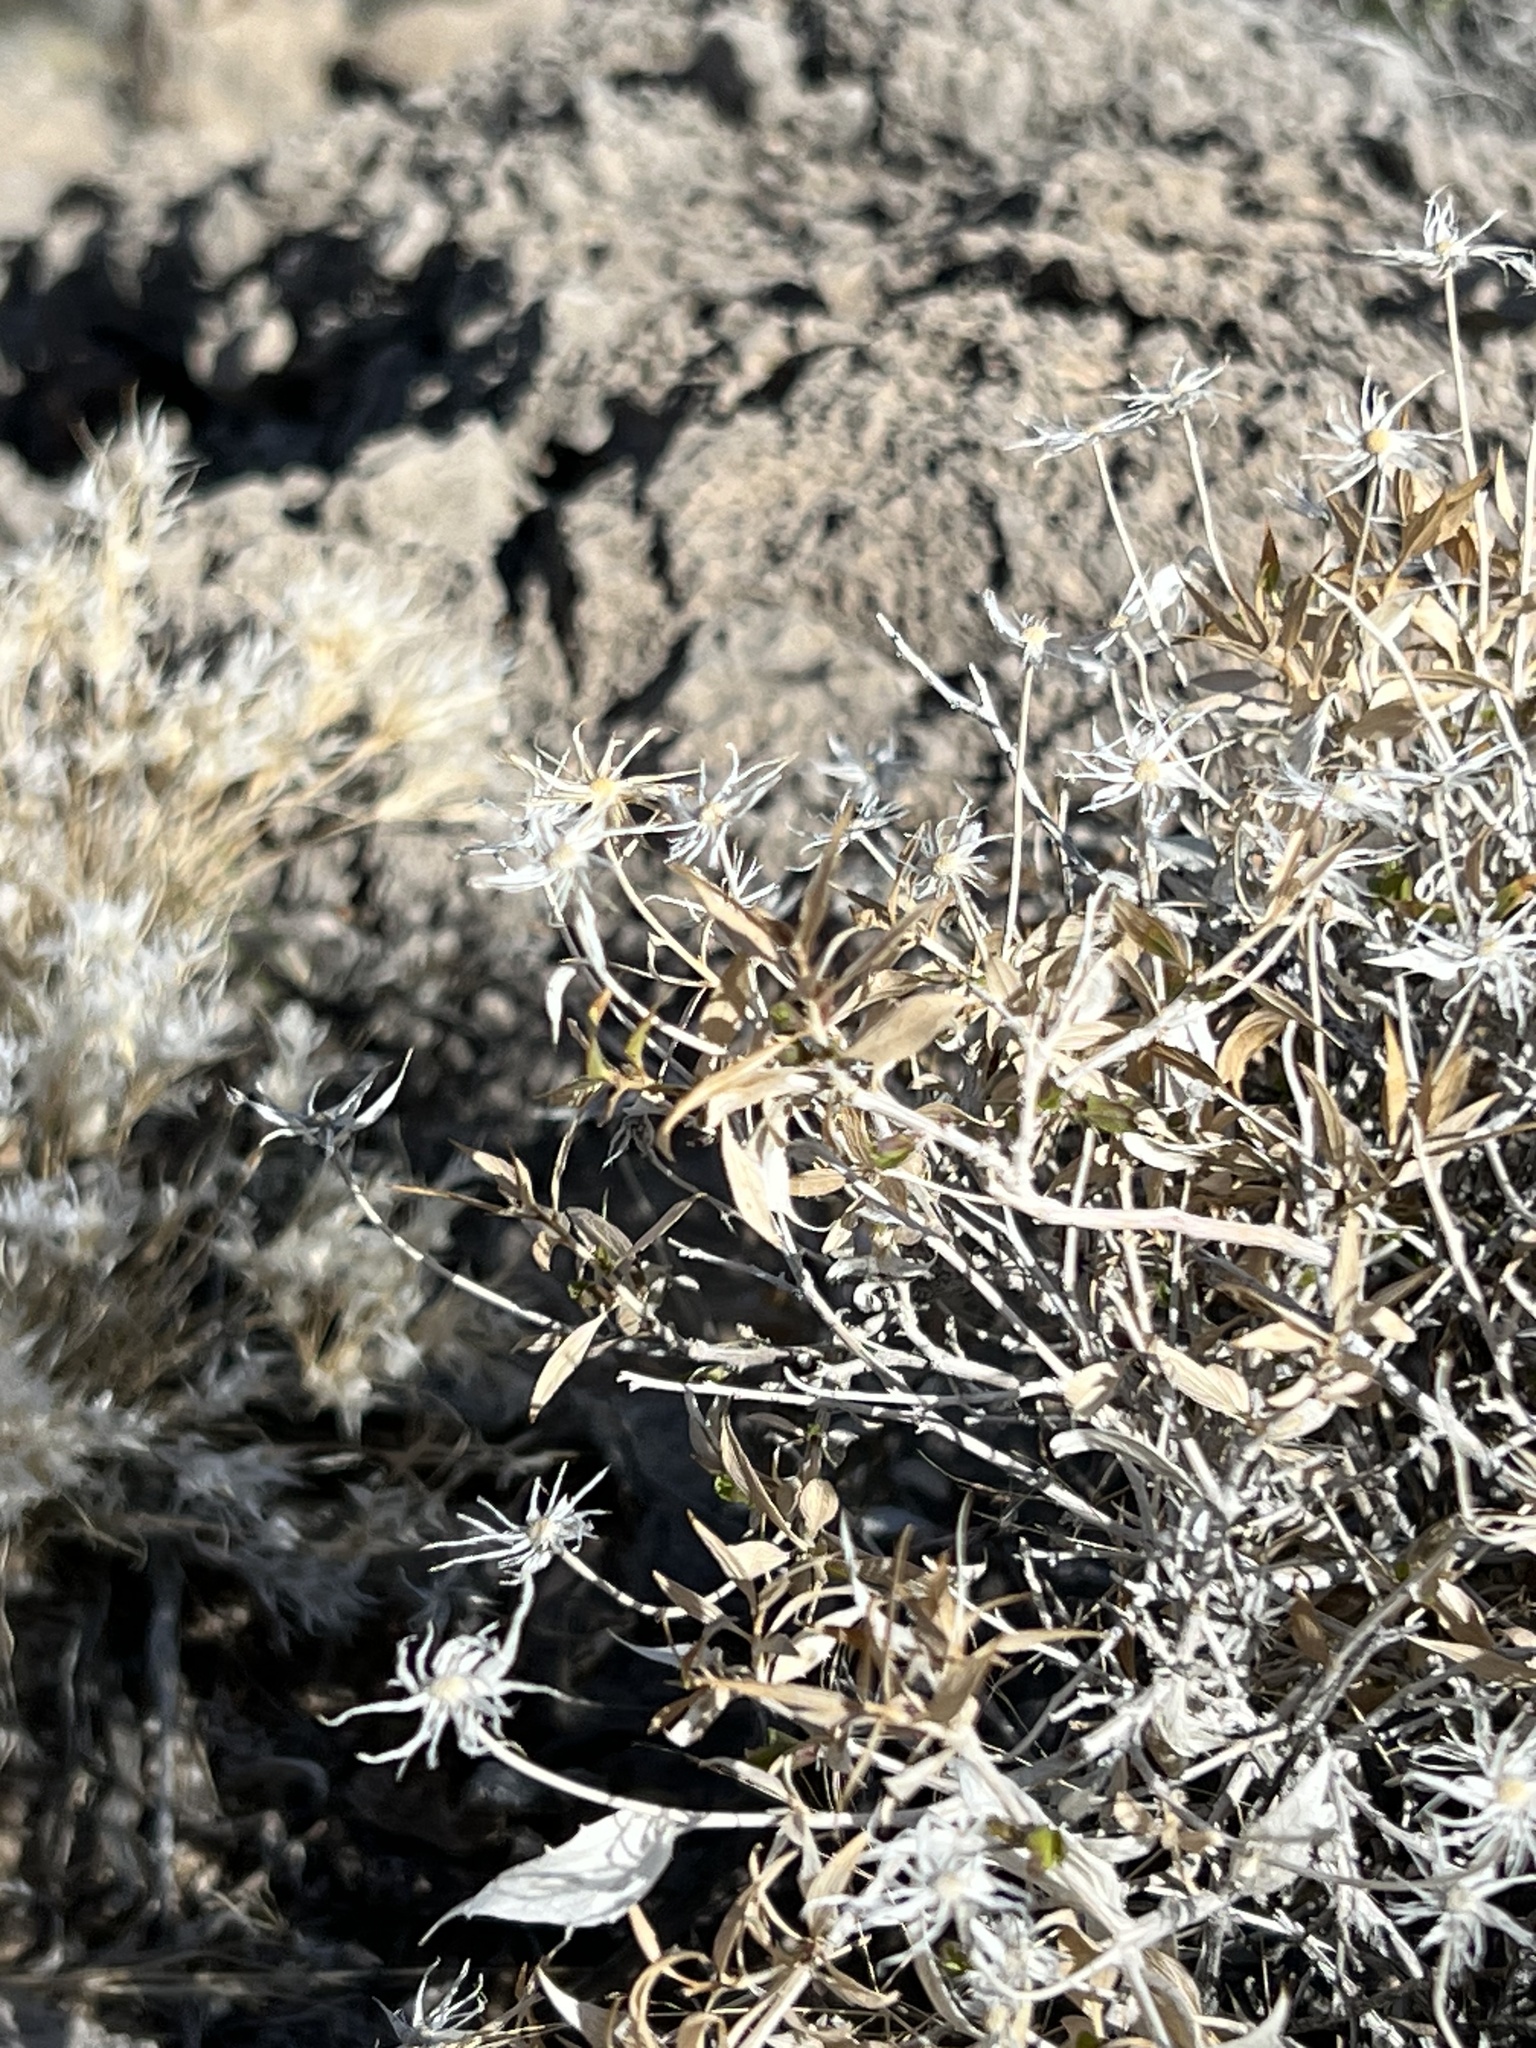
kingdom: Plantae
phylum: Tracheophyta
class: Magnoliopsida
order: Asterales
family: Asteraceae
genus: Brickellia
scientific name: Brickellia atractyloides
